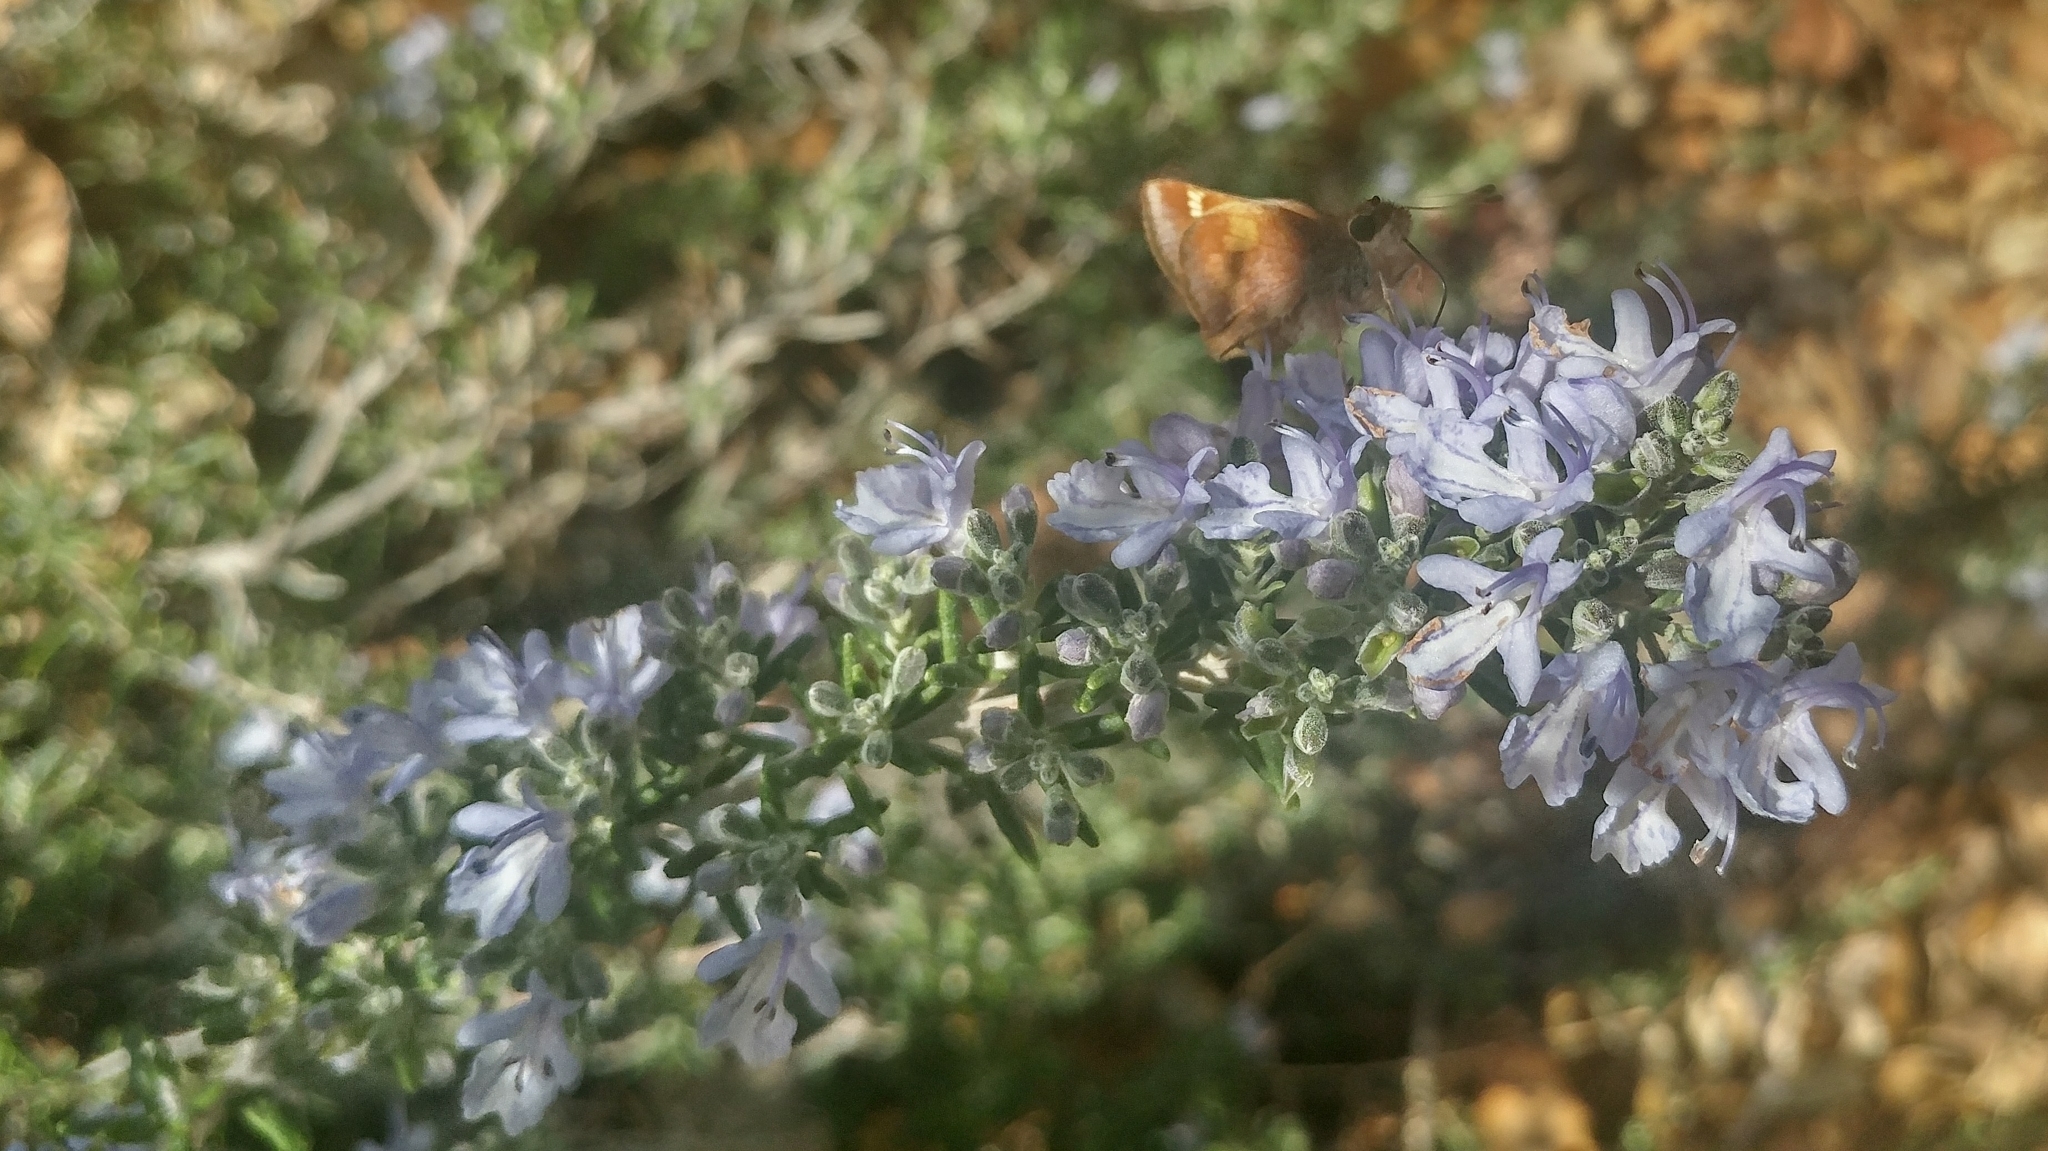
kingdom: Animalia
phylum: Arthropoda
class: Insecta
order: Lepidoptera
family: Hesperiidae
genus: Lon
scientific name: Lon melane
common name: Umber skipper
